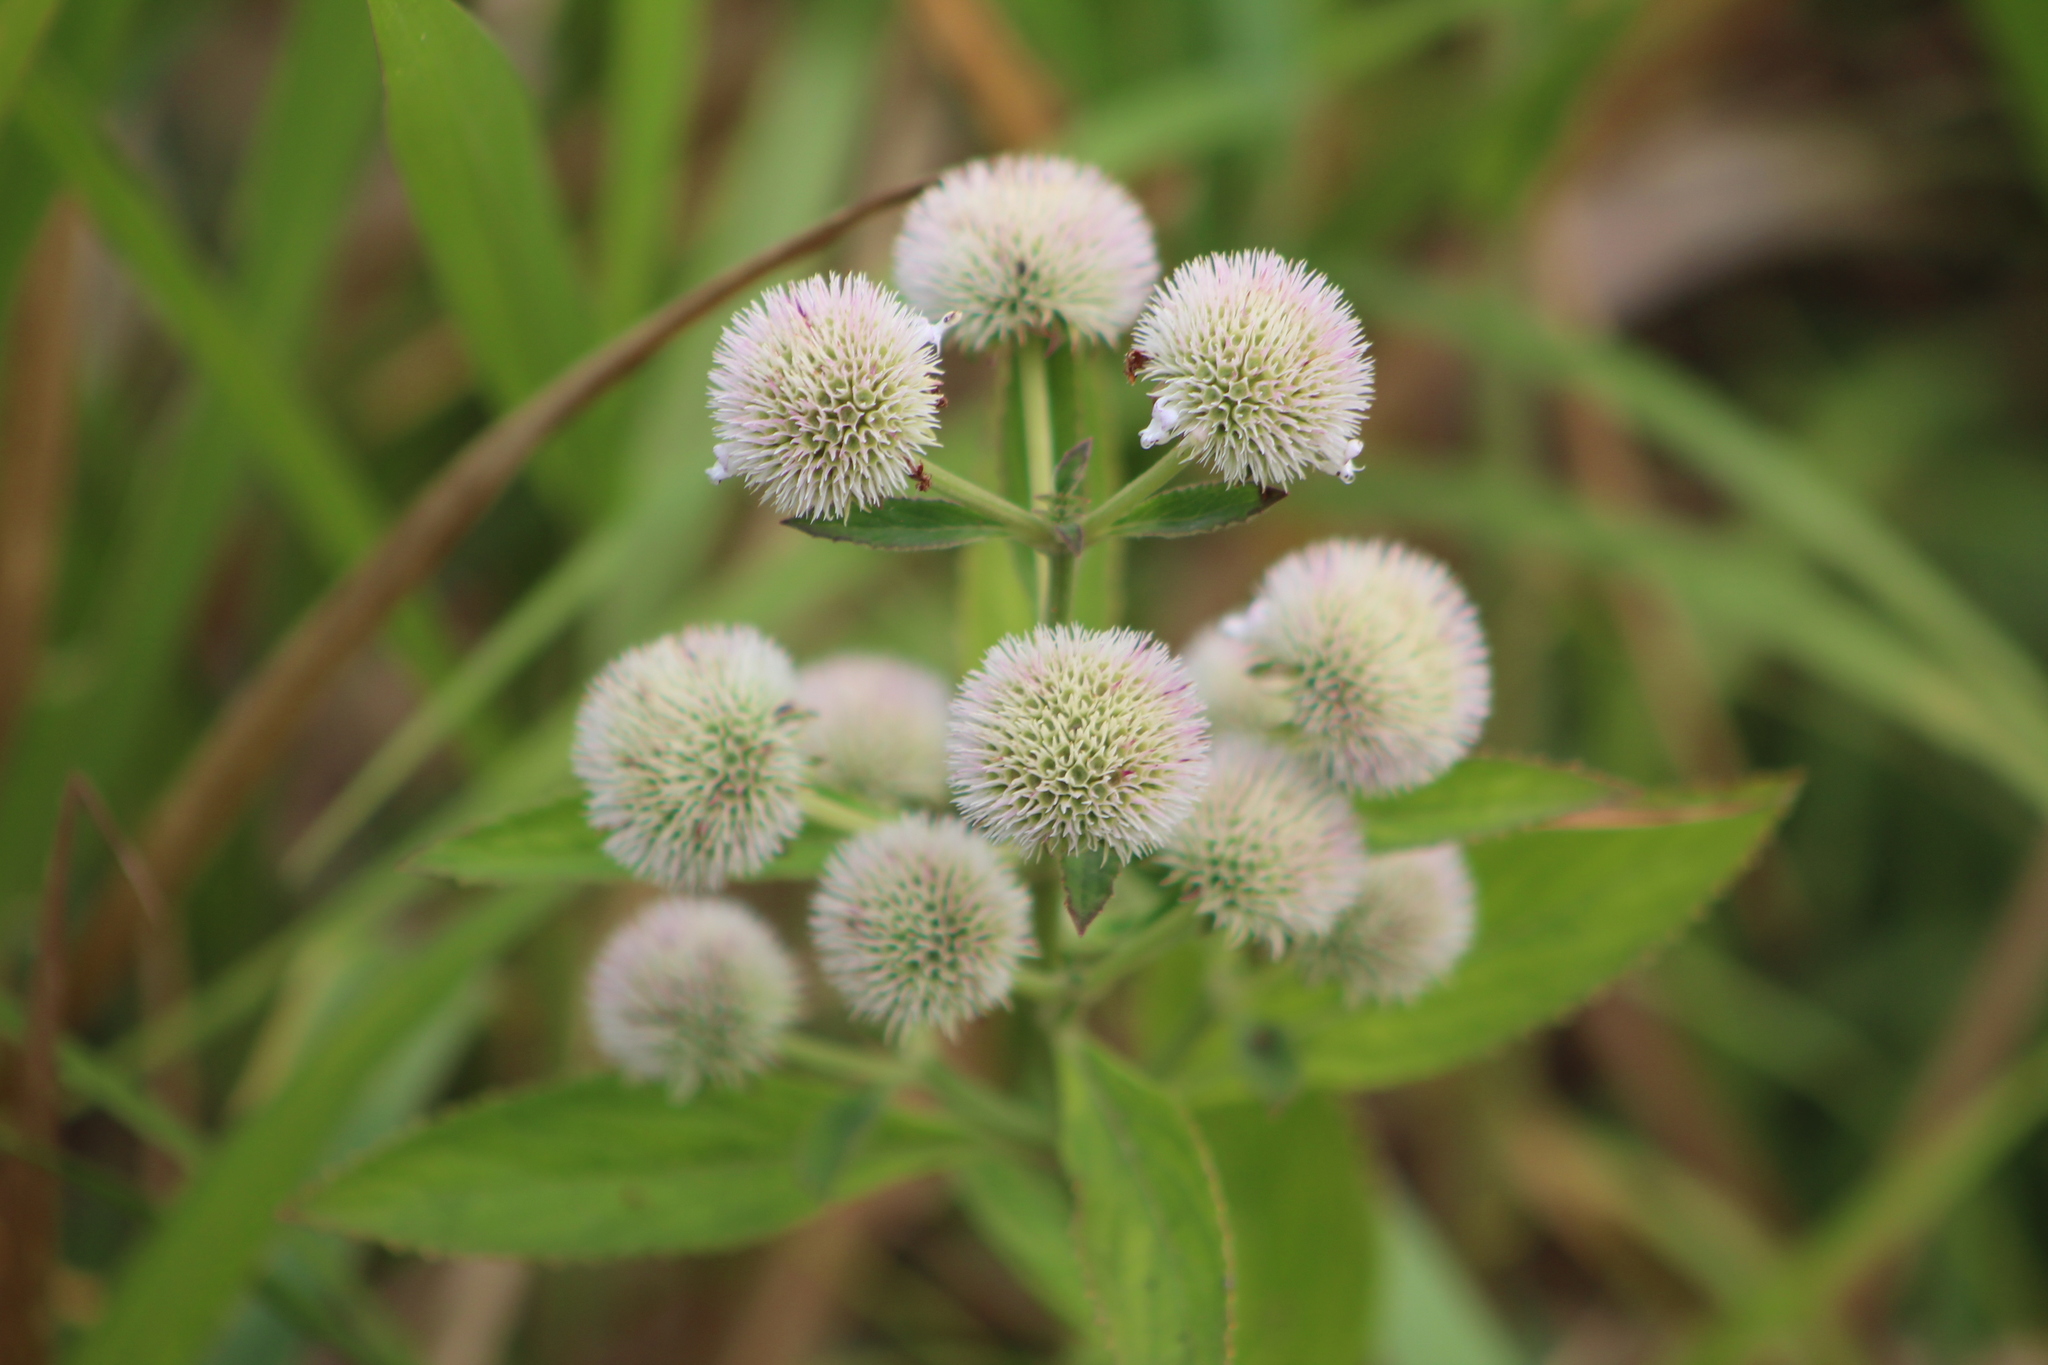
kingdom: Plantae
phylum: Tracheophyta
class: Magnoliopsida
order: Lamiales
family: Lamiaceae
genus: Hyptis
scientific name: Hyptis capitata
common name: False ironwort
